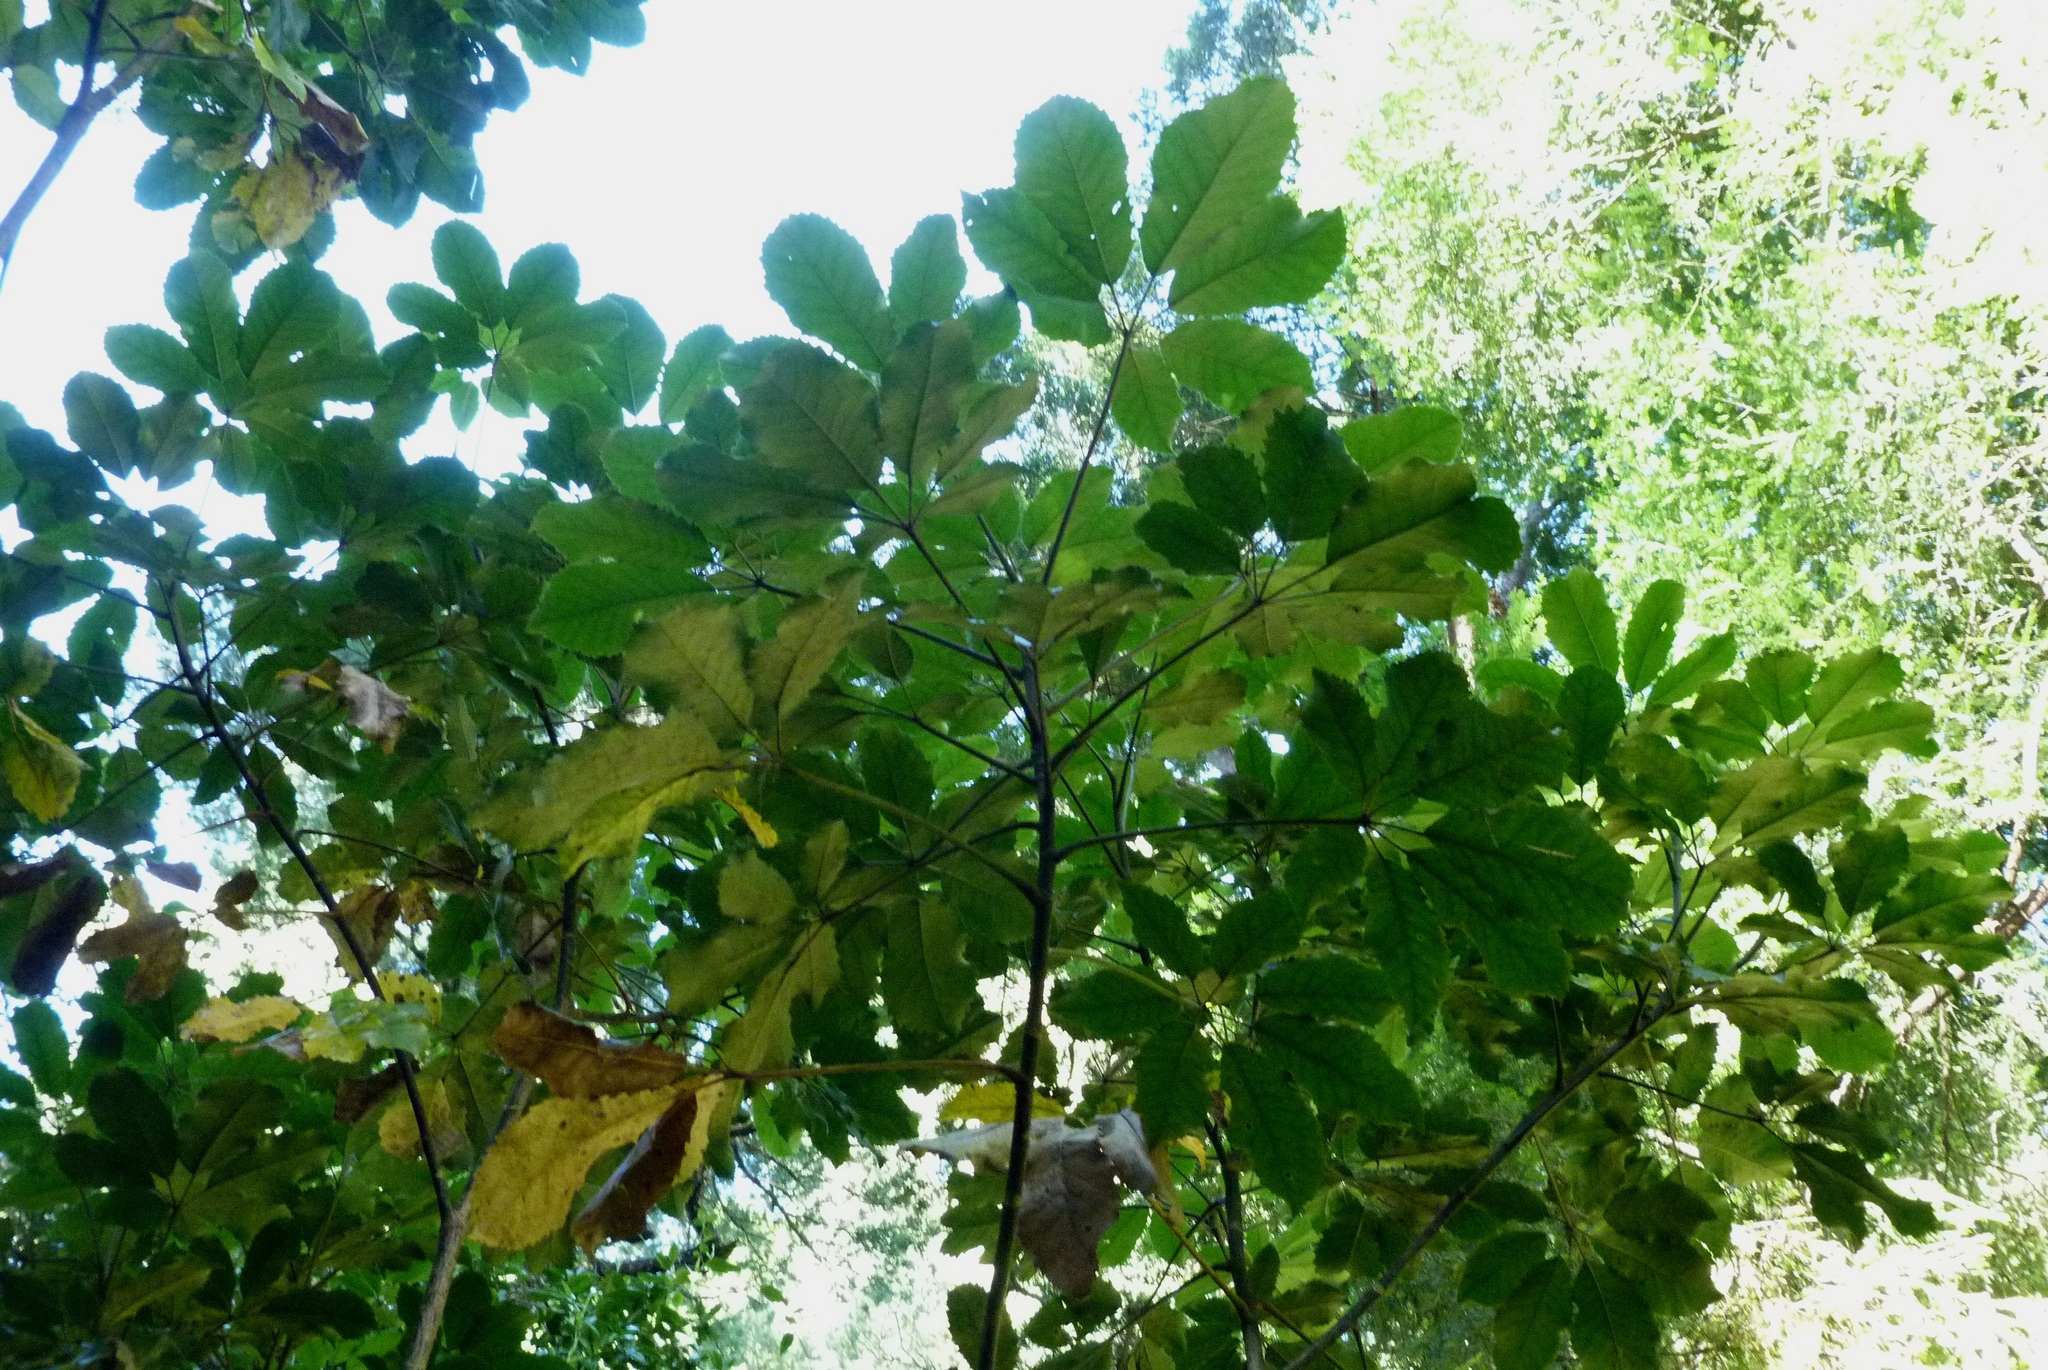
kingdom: Plantae
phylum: Tracheophyta
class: Magnoliopsida
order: Apiales
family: Araliaceae
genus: Neopanax
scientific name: Neopanax arboreus
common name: Five-fingers
